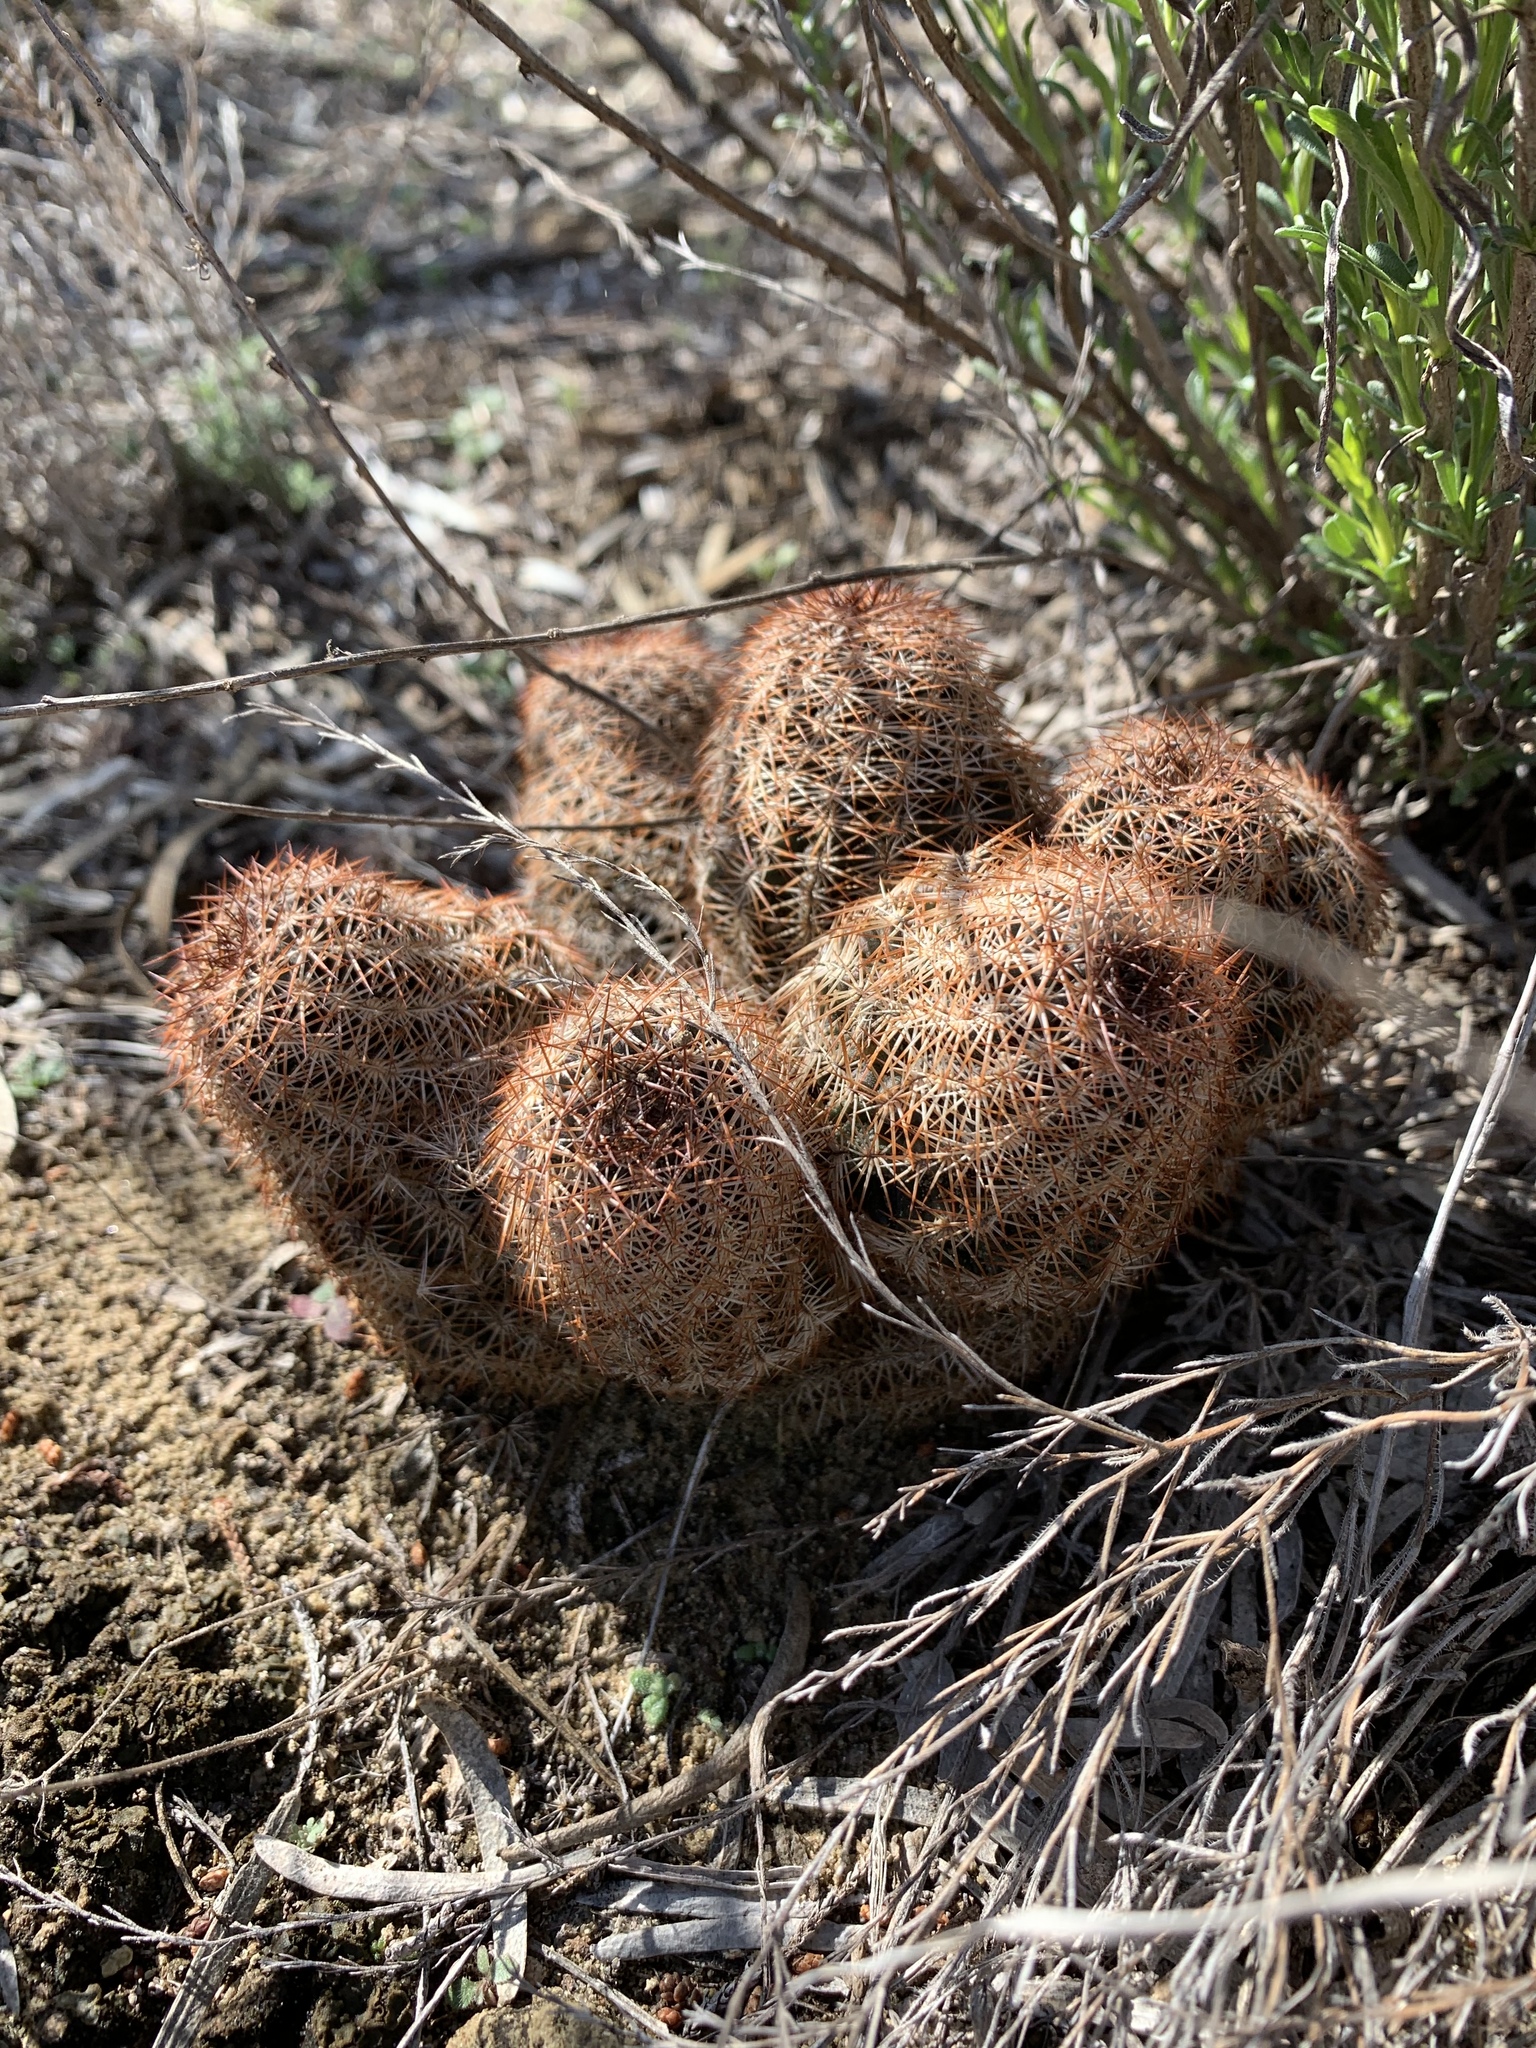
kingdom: Plantae
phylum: Tracheophyta
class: Magnoliopsida
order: Caryophyllales
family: Cactaceae
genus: Echinocereus
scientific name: Echinocereus reichenbachii
